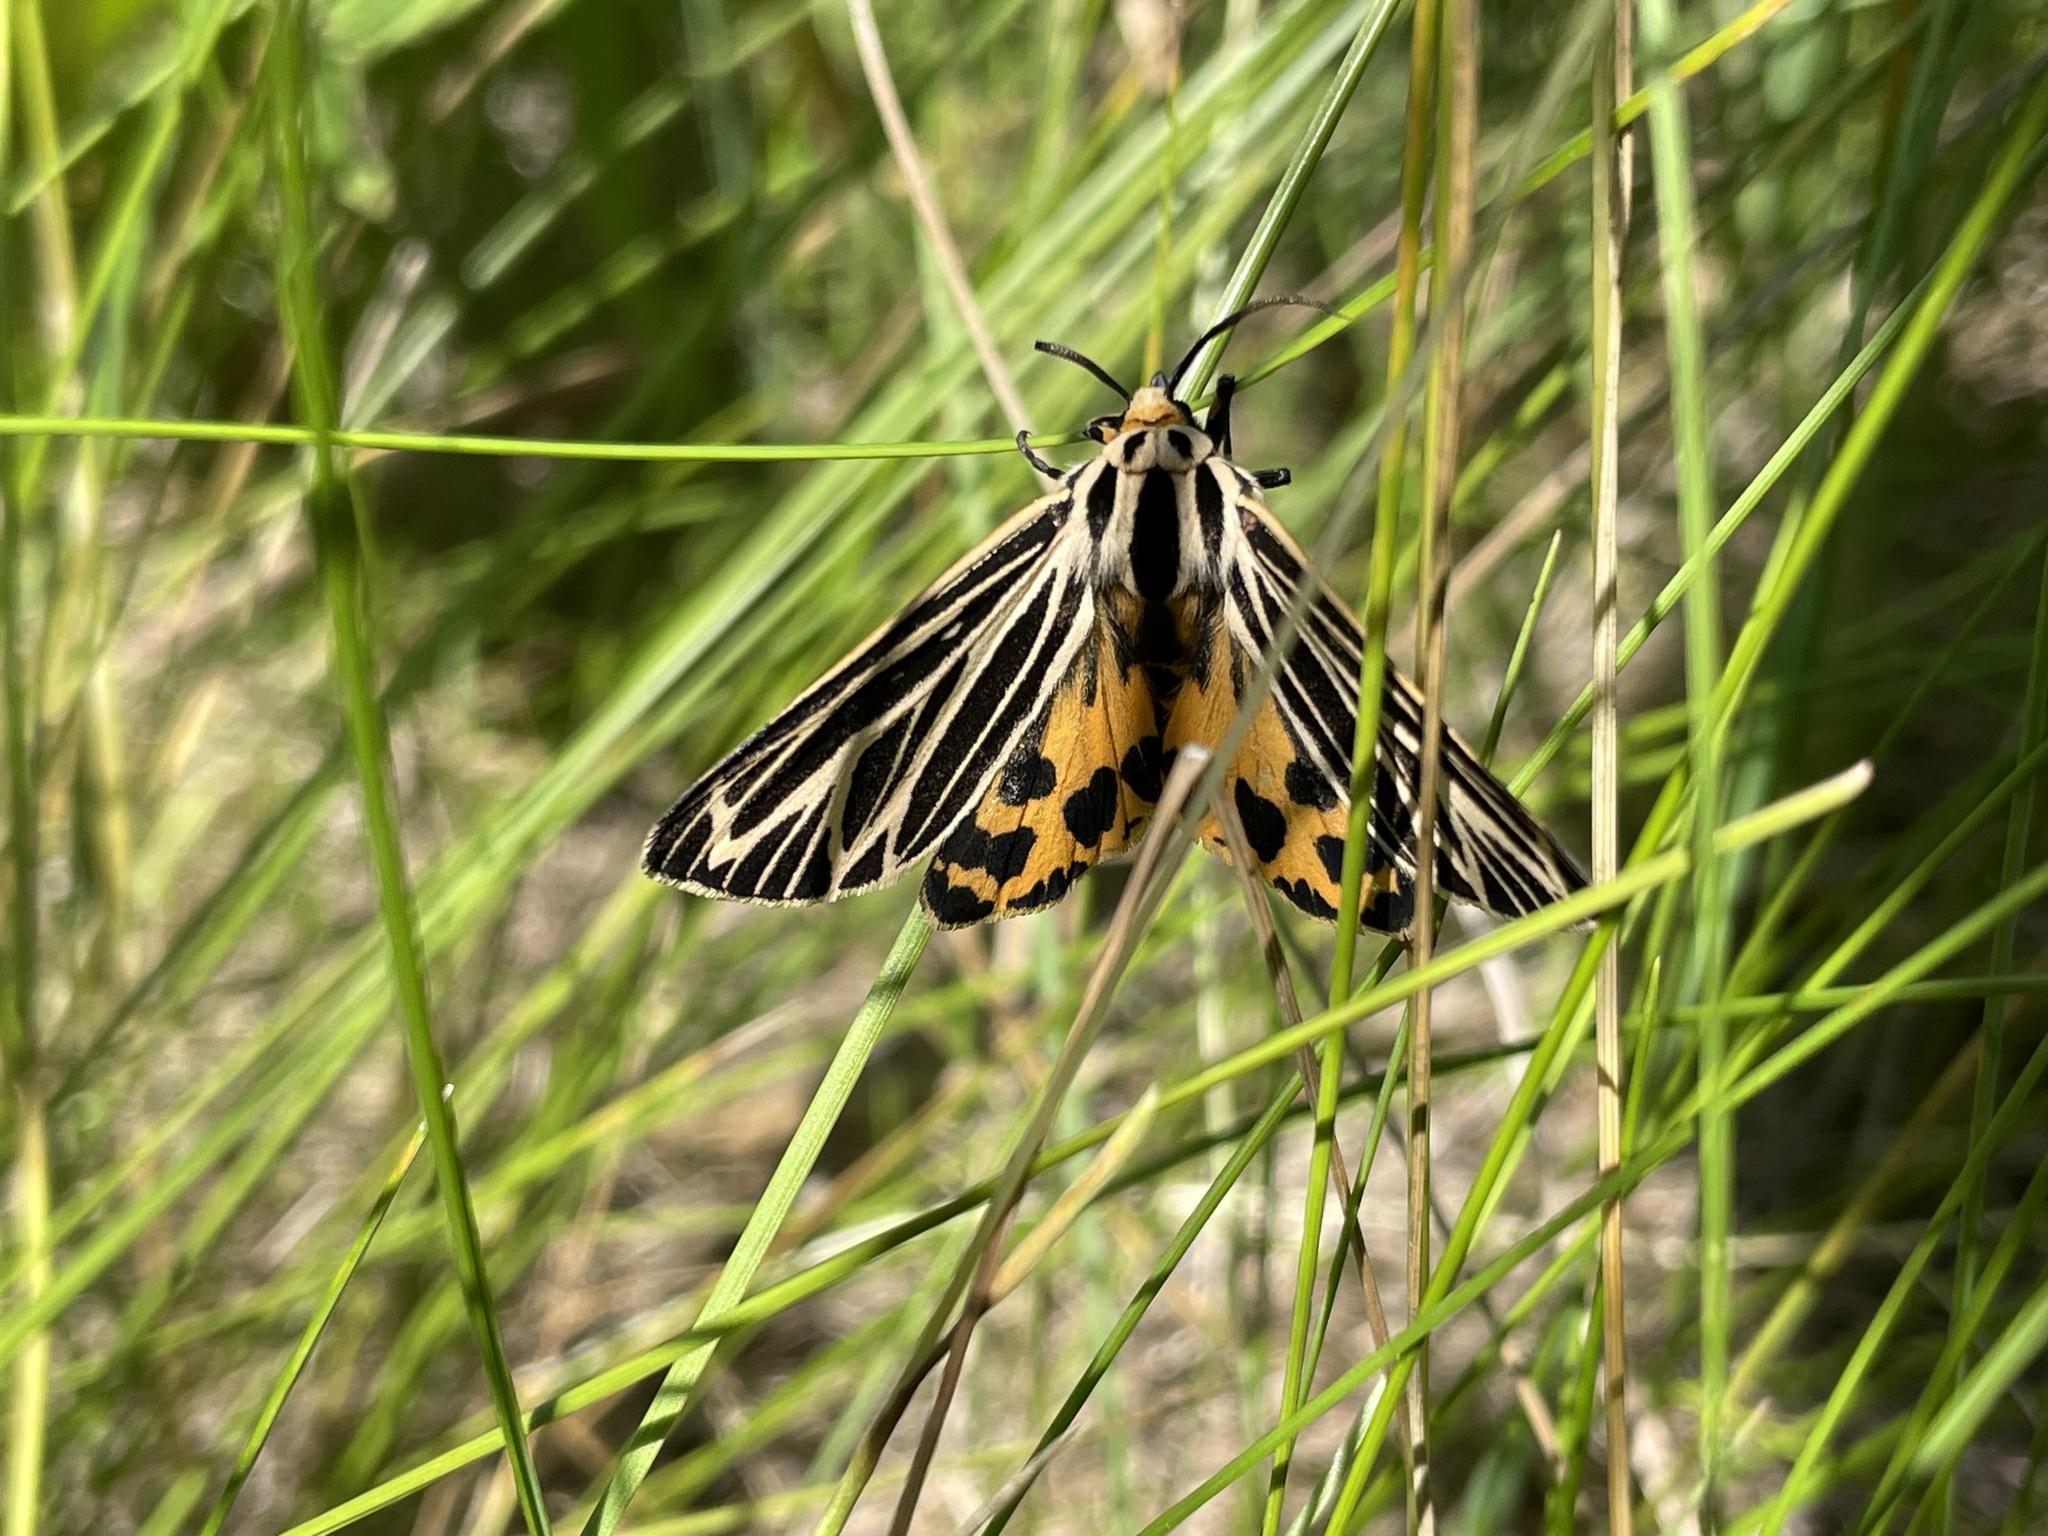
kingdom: Animalia
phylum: Arthropoda
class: Insecta
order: Lepidoptera
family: Erebidae
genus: Grammia
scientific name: Grammia virguncula
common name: Little tiger moth
